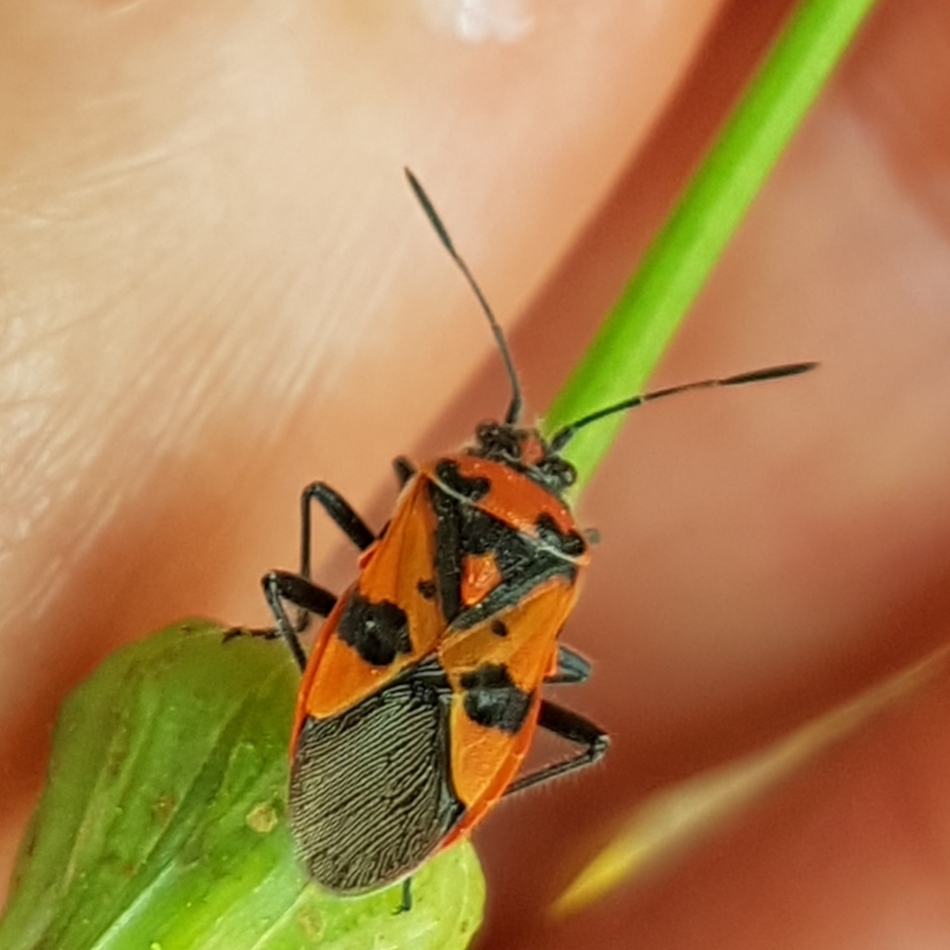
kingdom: Animalia
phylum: Arthropoda
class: Insecta
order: Hemiptera
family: Rhopalidae
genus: Corizus
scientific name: Corizus hyoscyami
